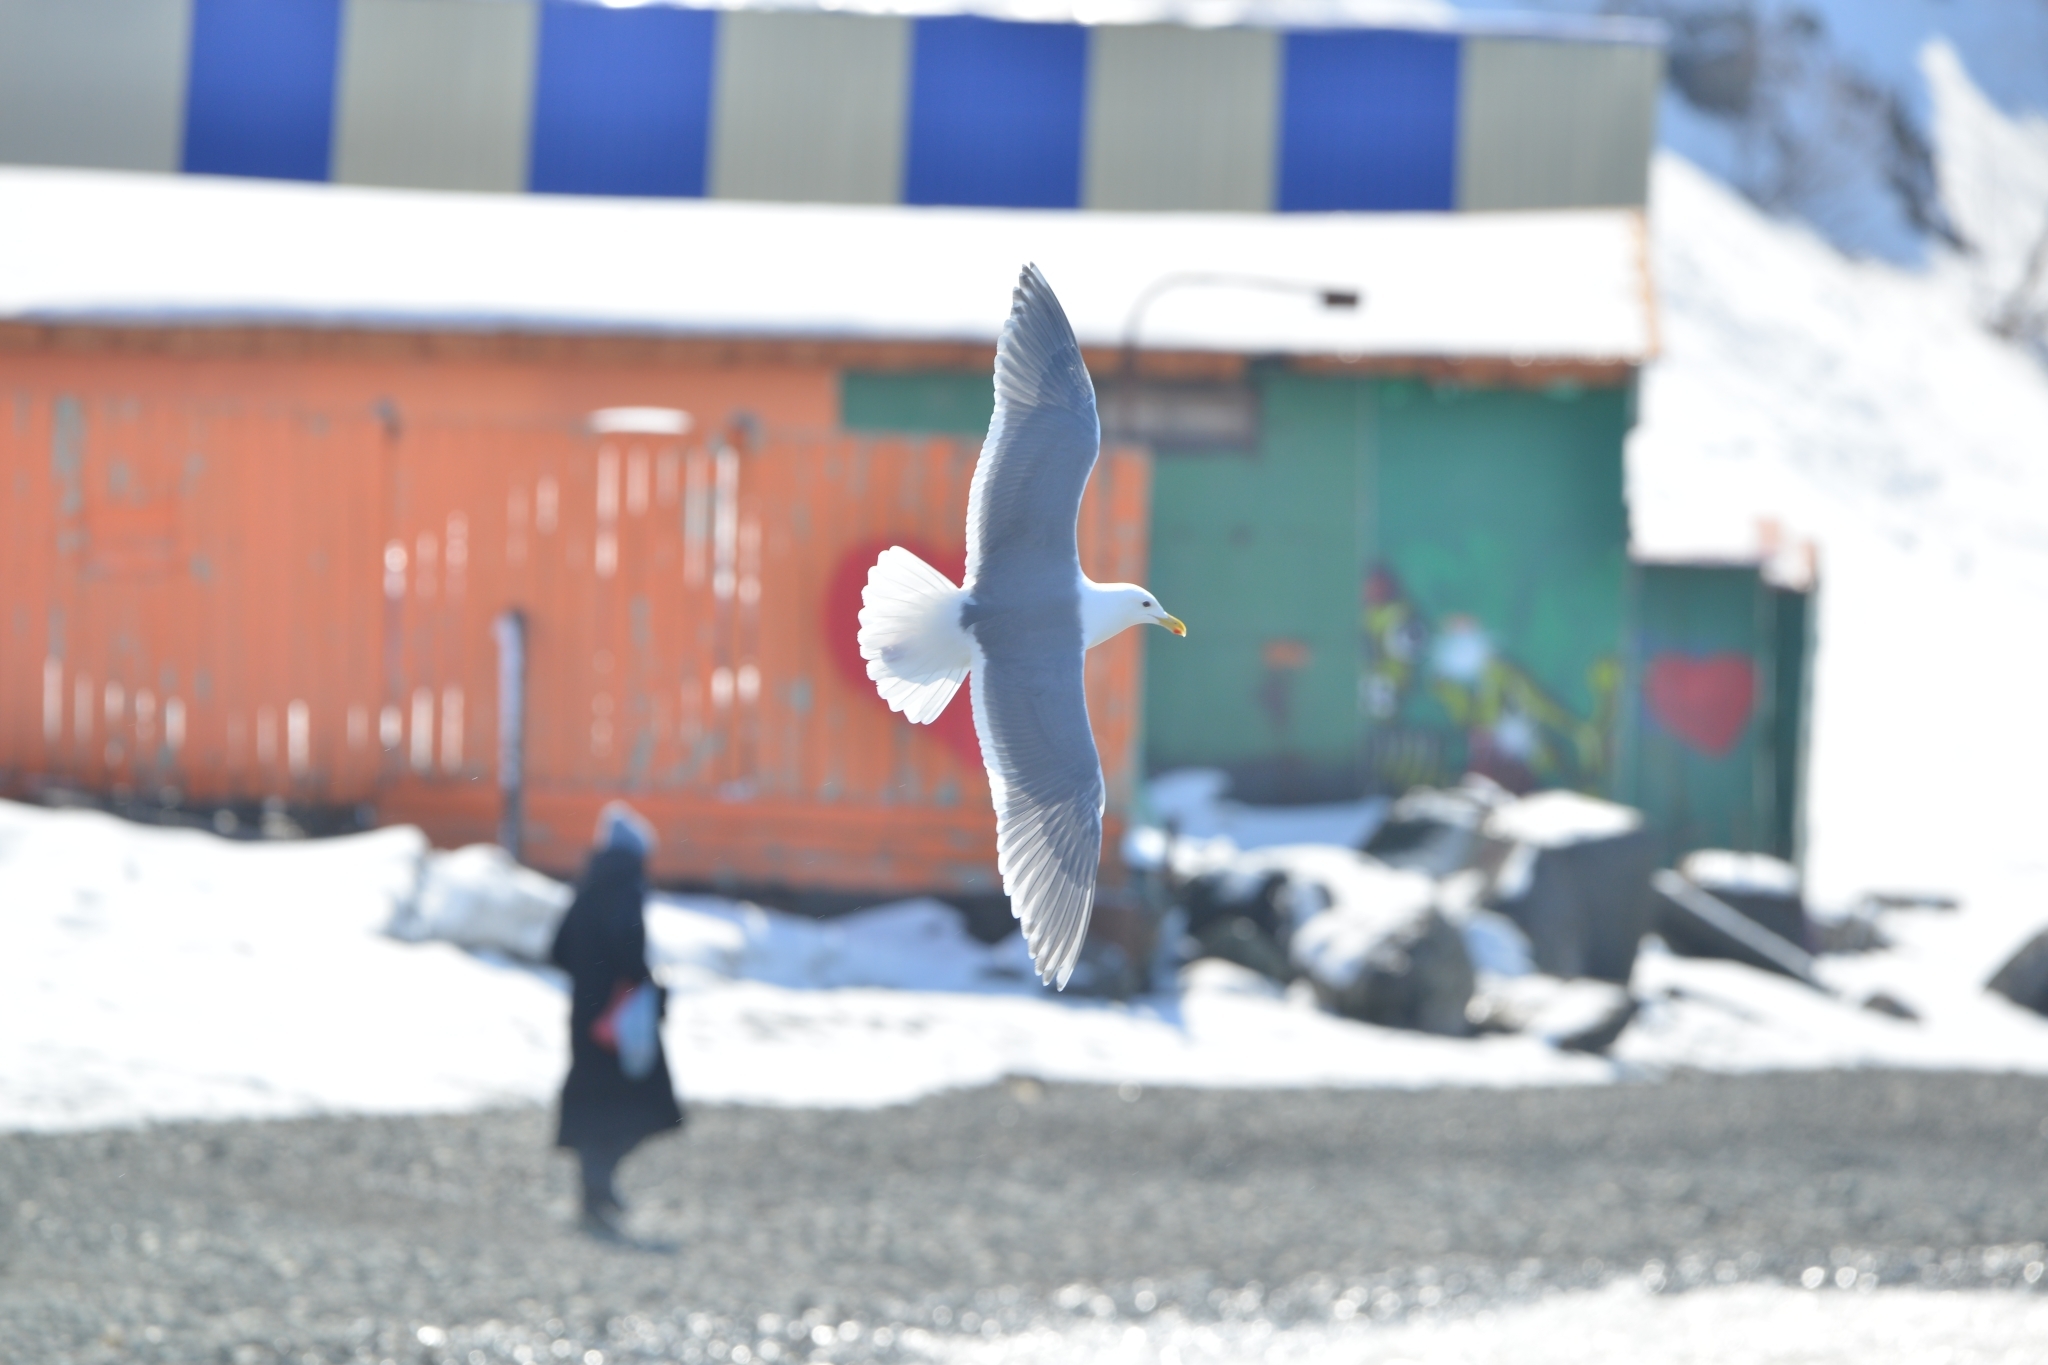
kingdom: Animalia
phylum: Chordata
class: Aves
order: Charadriiformes
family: Laridae
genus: Larus
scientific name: Larus glaucescens
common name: Glaucous-winged gull
